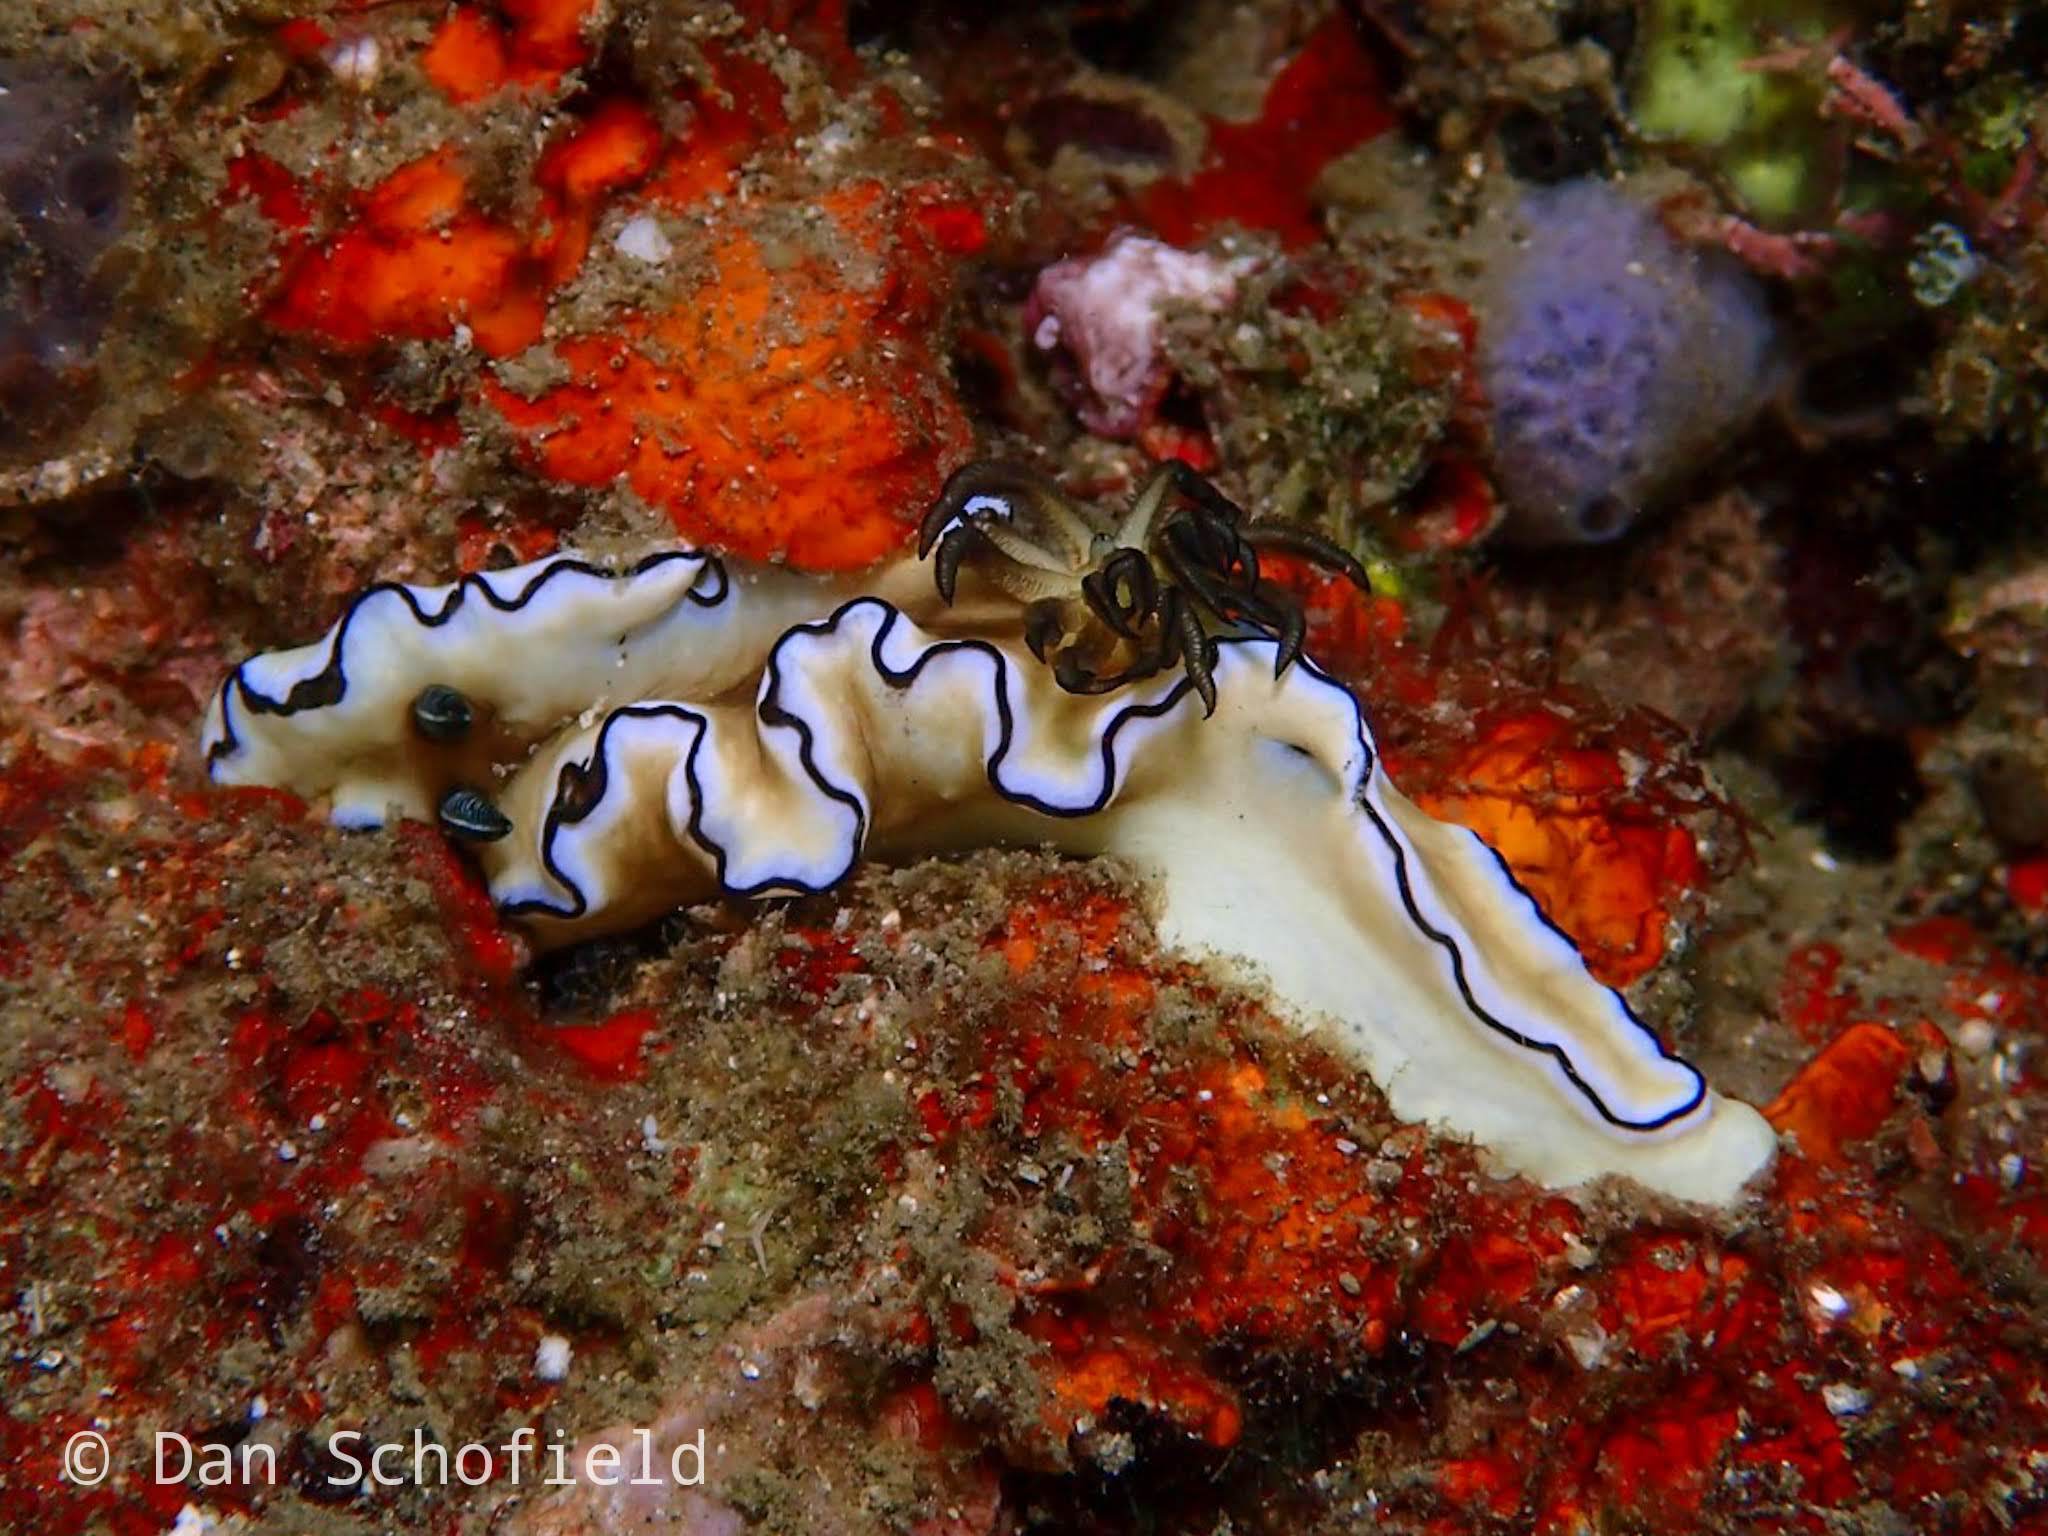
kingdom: Animalia
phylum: Mollusca
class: Gastropoda
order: Nudibranchia
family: Chromodorididae
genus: Doriprismatica
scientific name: Doriprismatica atromarginata
